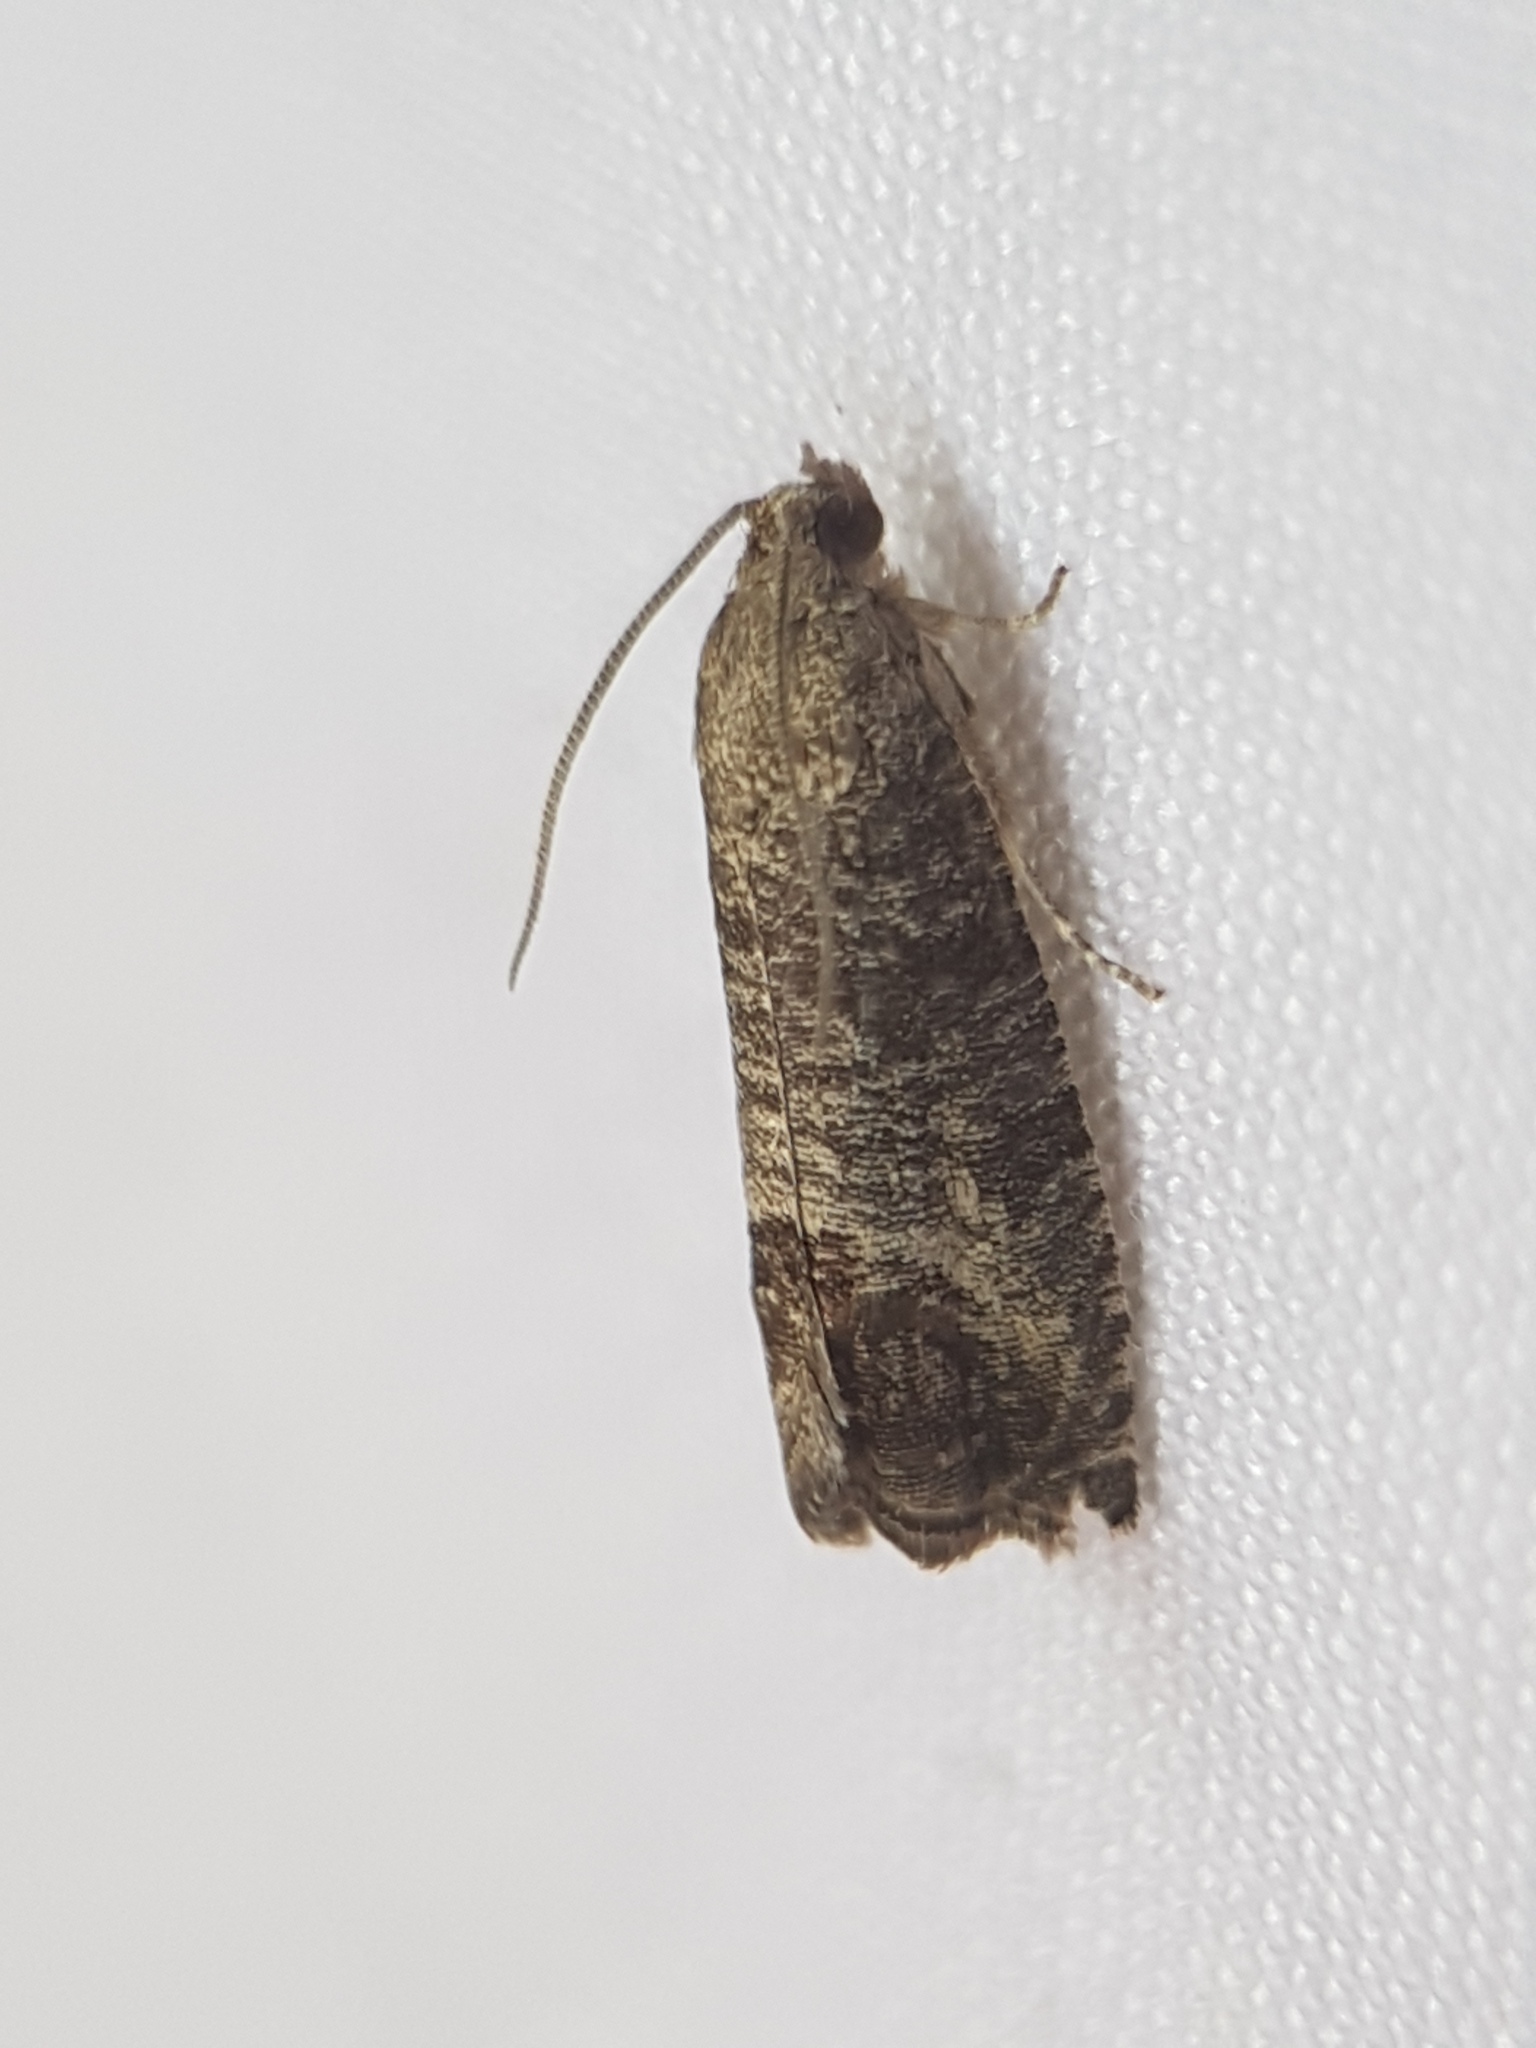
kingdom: Animalia
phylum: Arthropoda
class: Insecta
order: Lepidoptera
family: Tortricidae
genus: Cydia
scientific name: Cydia pomonella
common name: Codling moth
